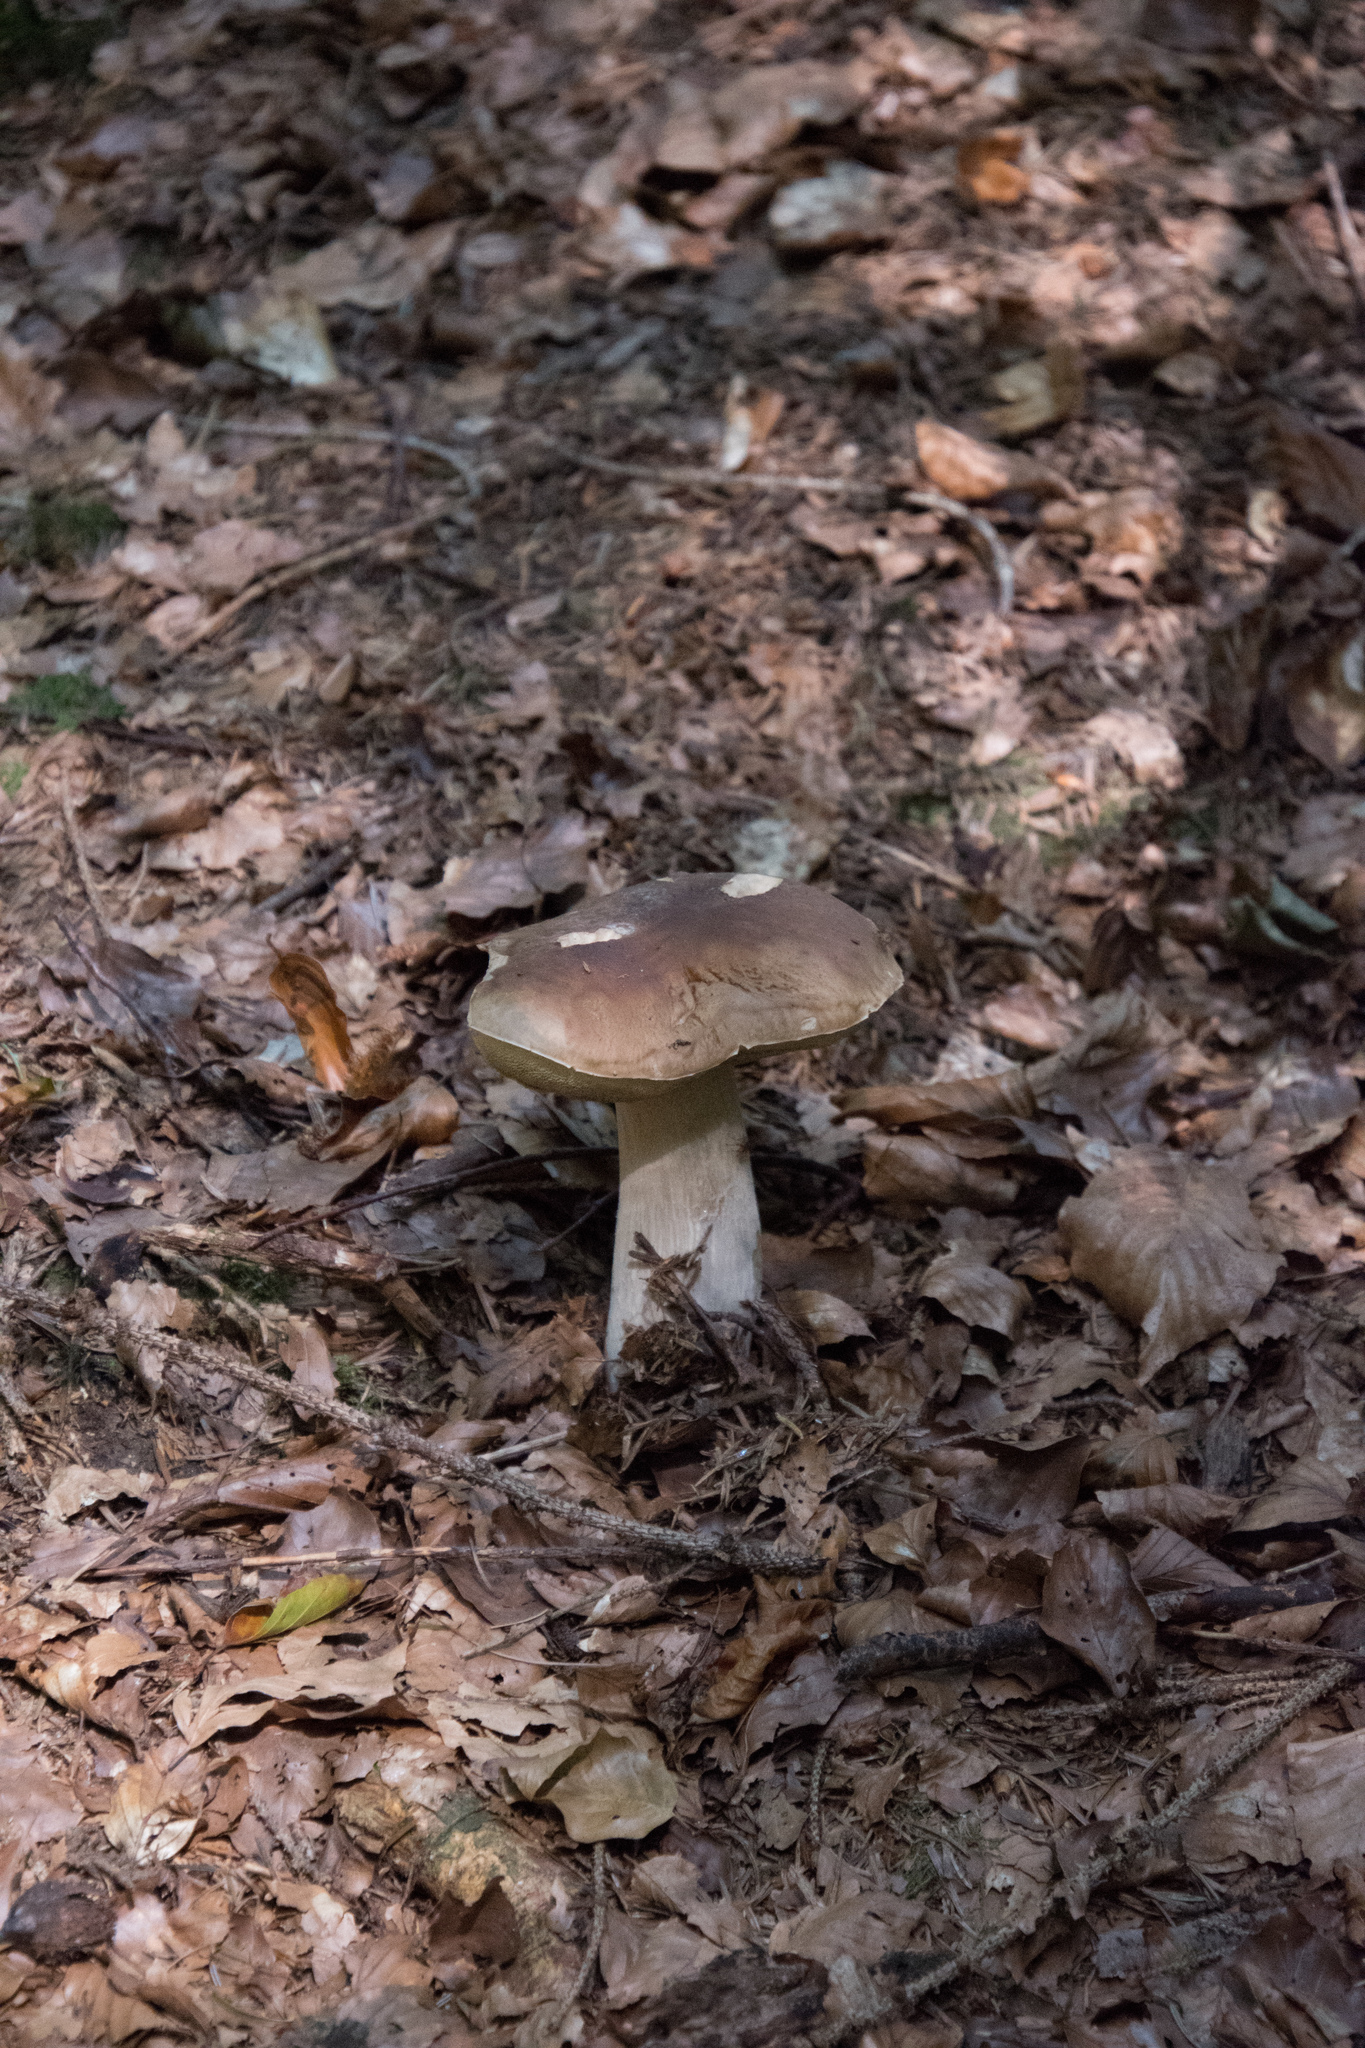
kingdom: Fungi
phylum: Basidiomycota
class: Agaricomycetes
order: Boletales
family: Boletaceae
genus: Boletus
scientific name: Boletus edulis
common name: Cep
